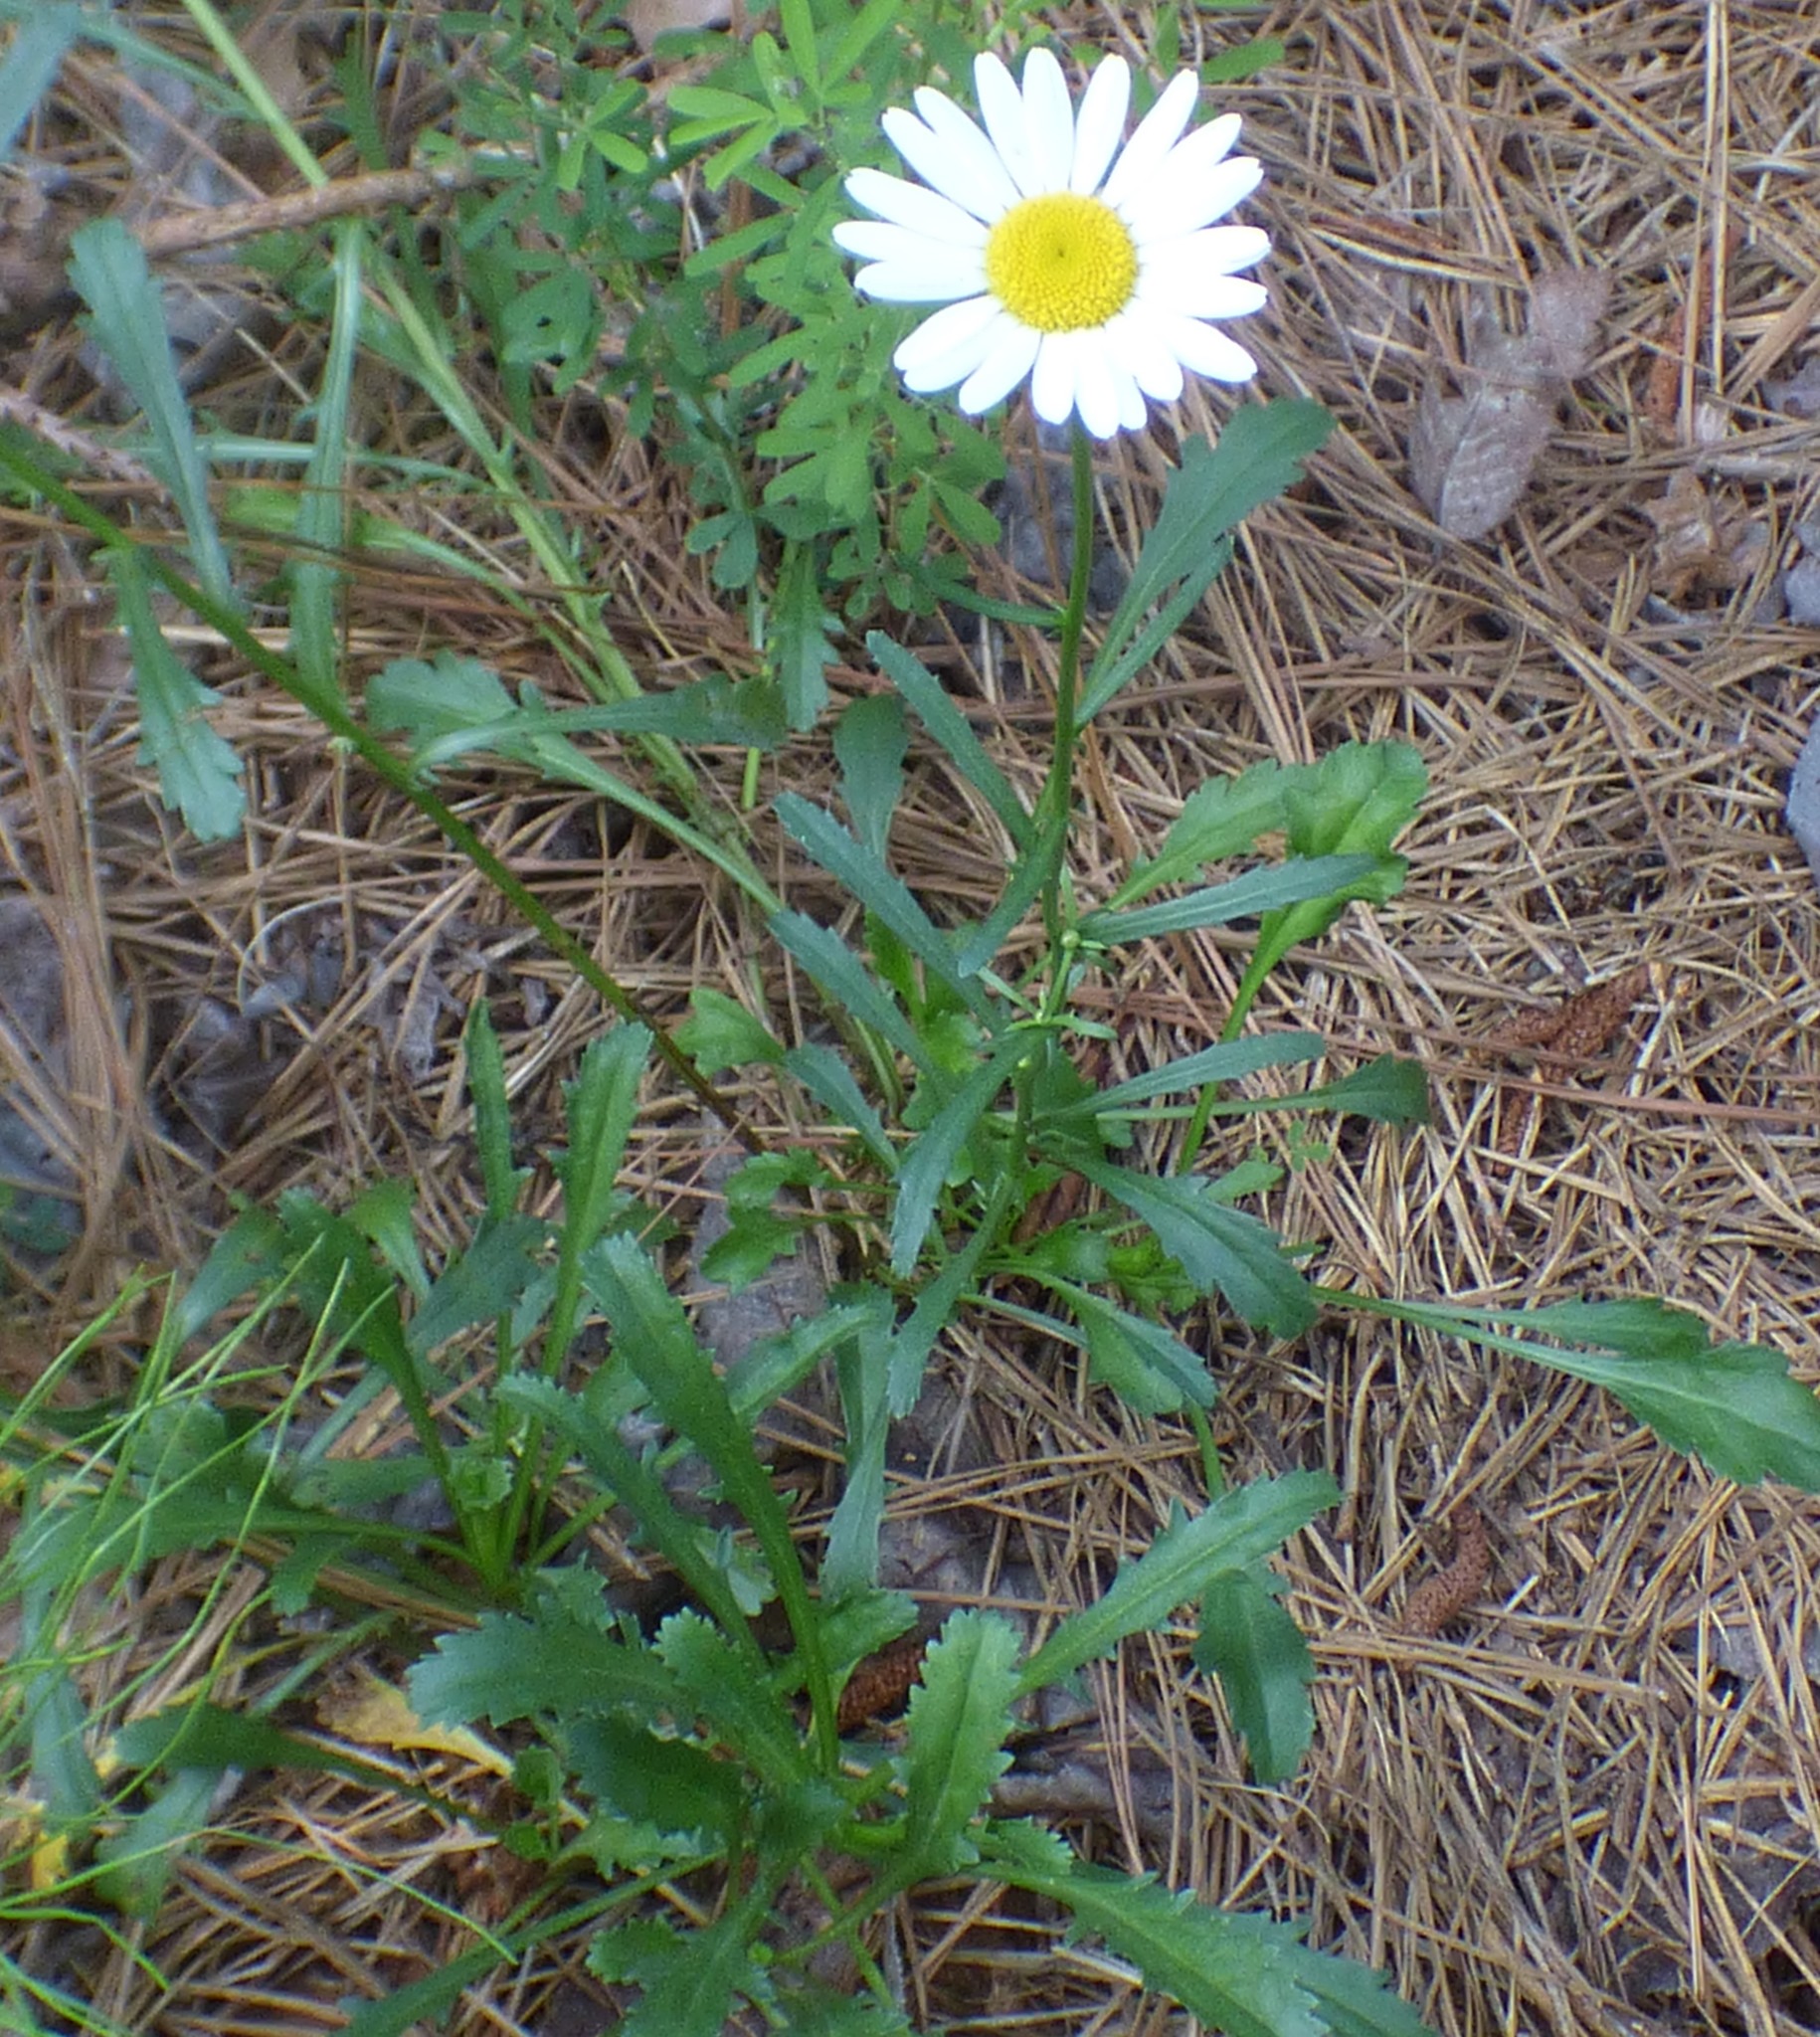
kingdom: Plantae
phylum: Tracheophyta
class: Magnoliopsida
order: Asterales
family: Asteraceae
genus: Leucanthemum
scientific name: Leucanthemum vulgare
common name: Oxeye daisy
